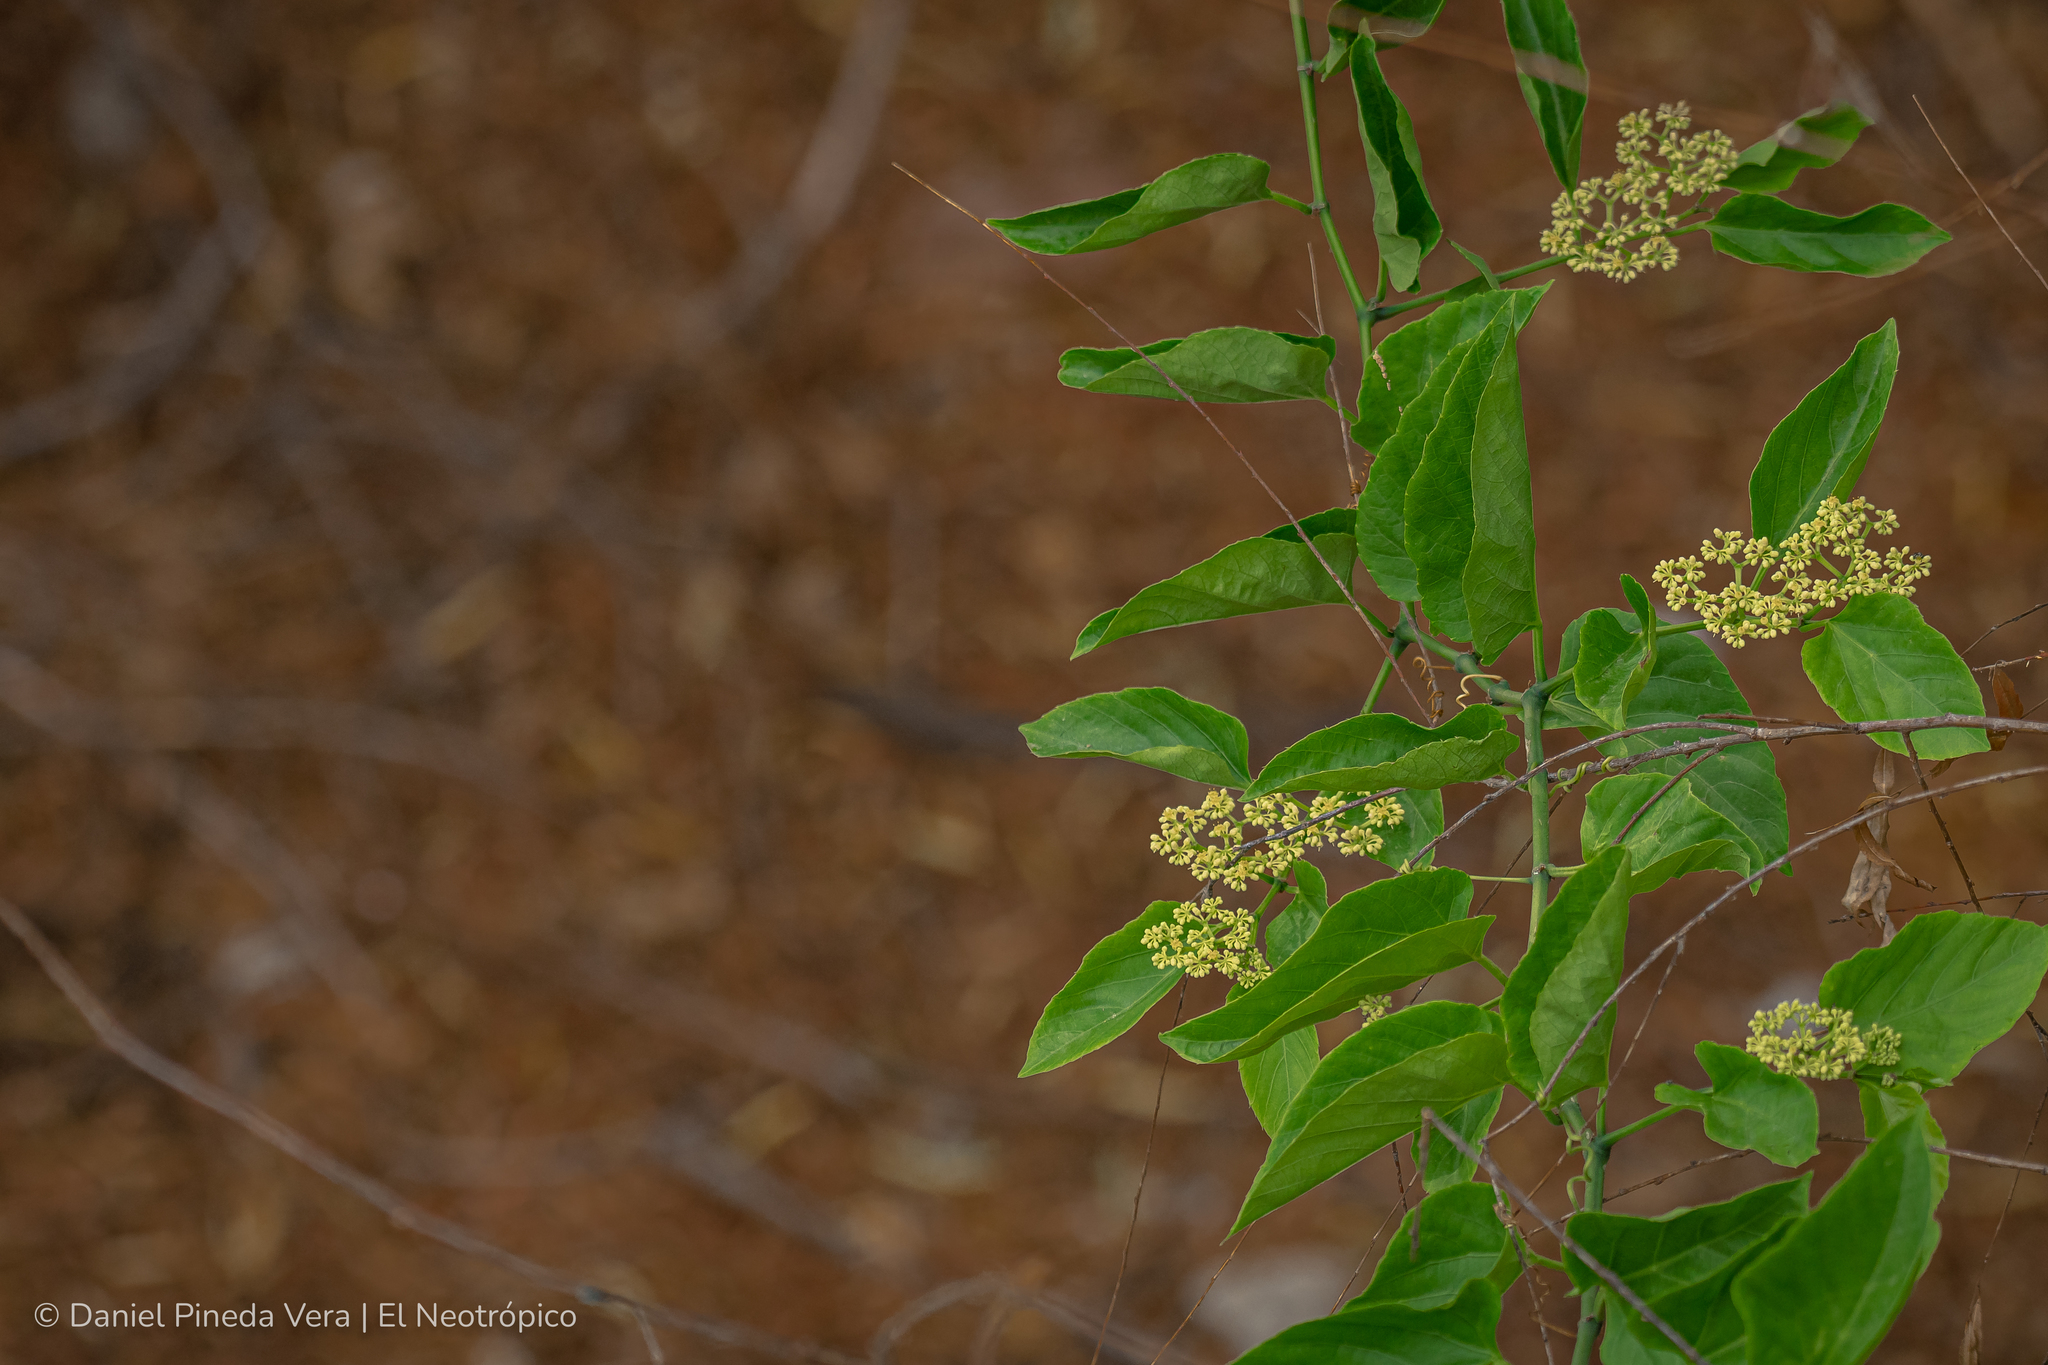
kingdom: Plantae
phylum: Tracheophyta
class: Magnoliopsida
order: Vitales
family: Vitaceae
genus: Cissus
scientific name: Cissus verticillata
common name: Princess vine
